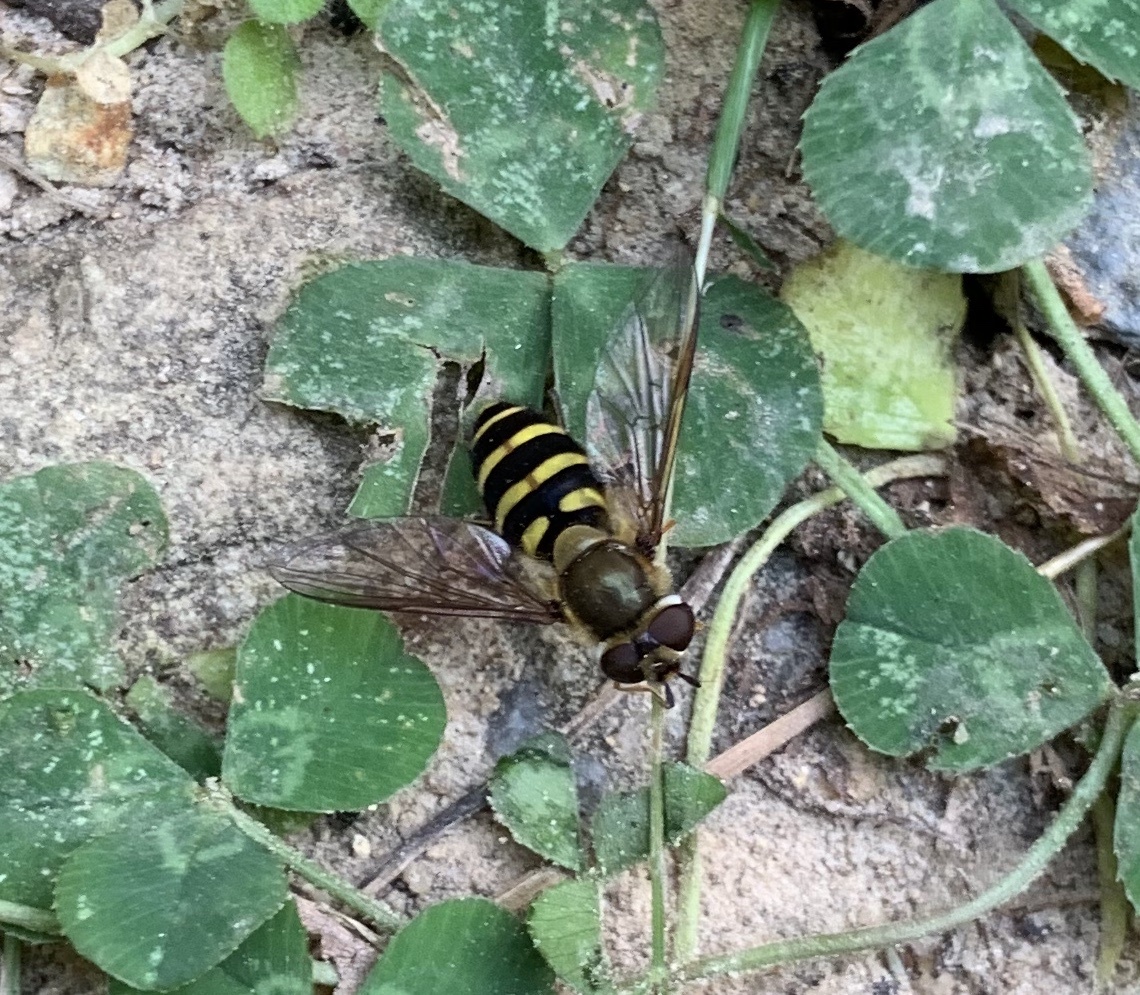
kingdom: Animalia
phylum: Arthropoda
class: Insecta
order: Diptera
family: Syrphidae
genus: Syrphus
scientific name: Syrphus
